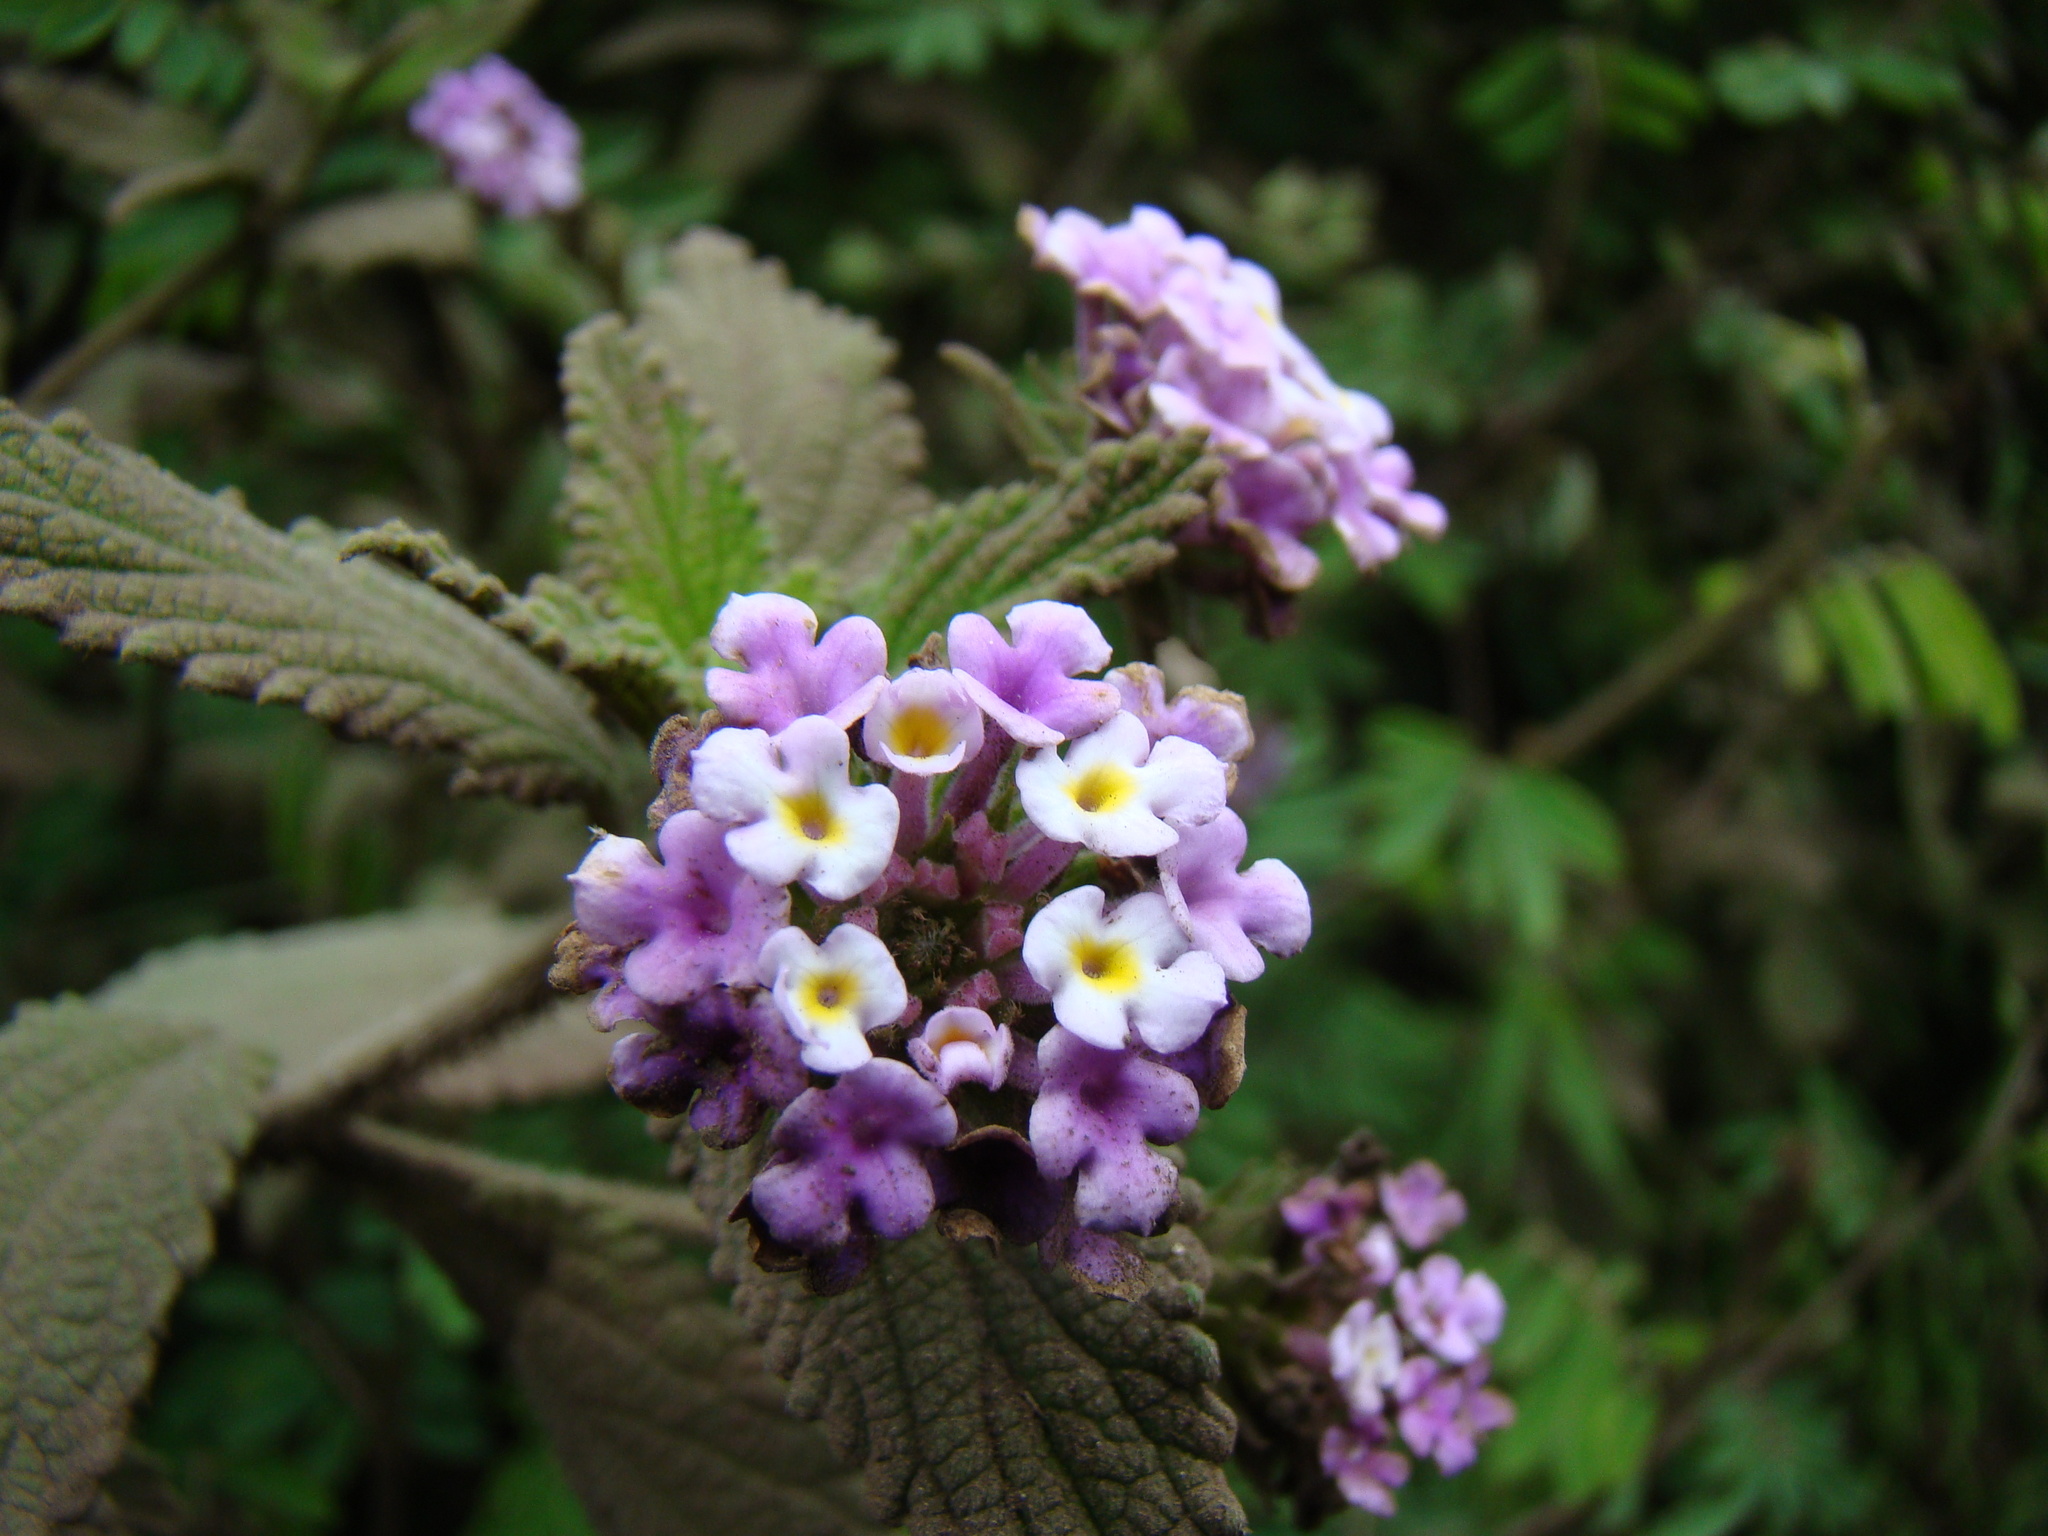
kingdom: Plantae
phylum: Tracheophyta
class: Magnoliopsida
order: Lamiales
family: Verbenaceae
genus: Lantana
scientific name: Lantana montevidensis
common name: Trailing shrubverbena
